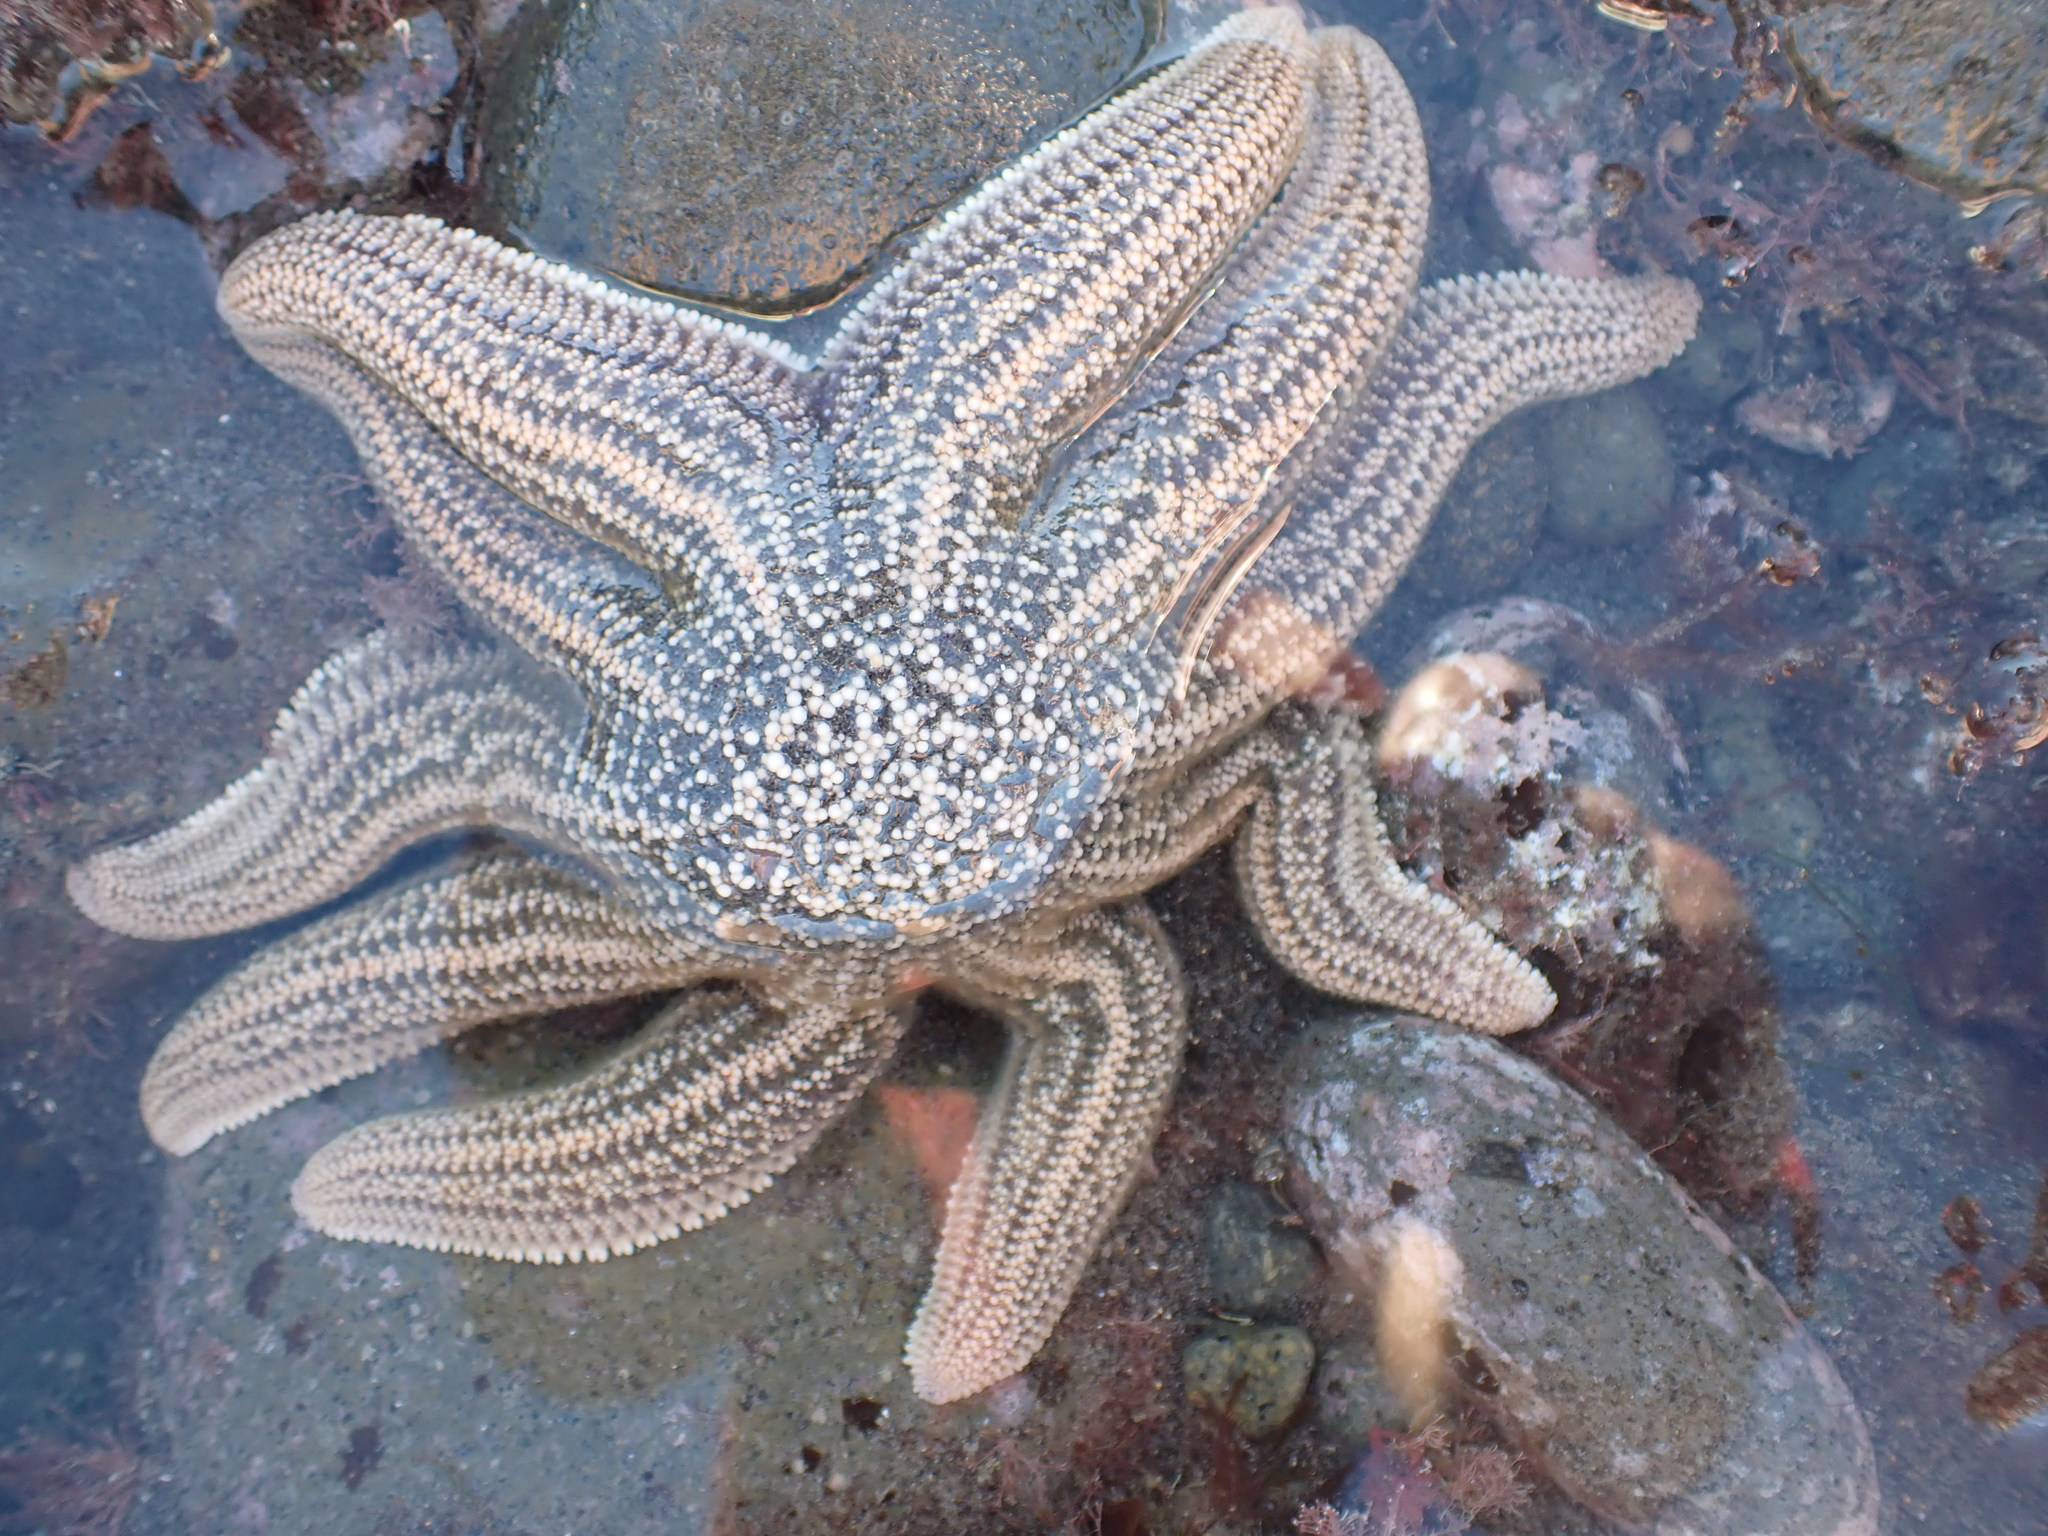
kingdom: Animalia
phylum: Echinodermata
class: Asteroidea
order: Forcipulatida
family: Stichasteridae
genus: Stichaster
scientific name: Stichaster australis
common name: Reef starfish
